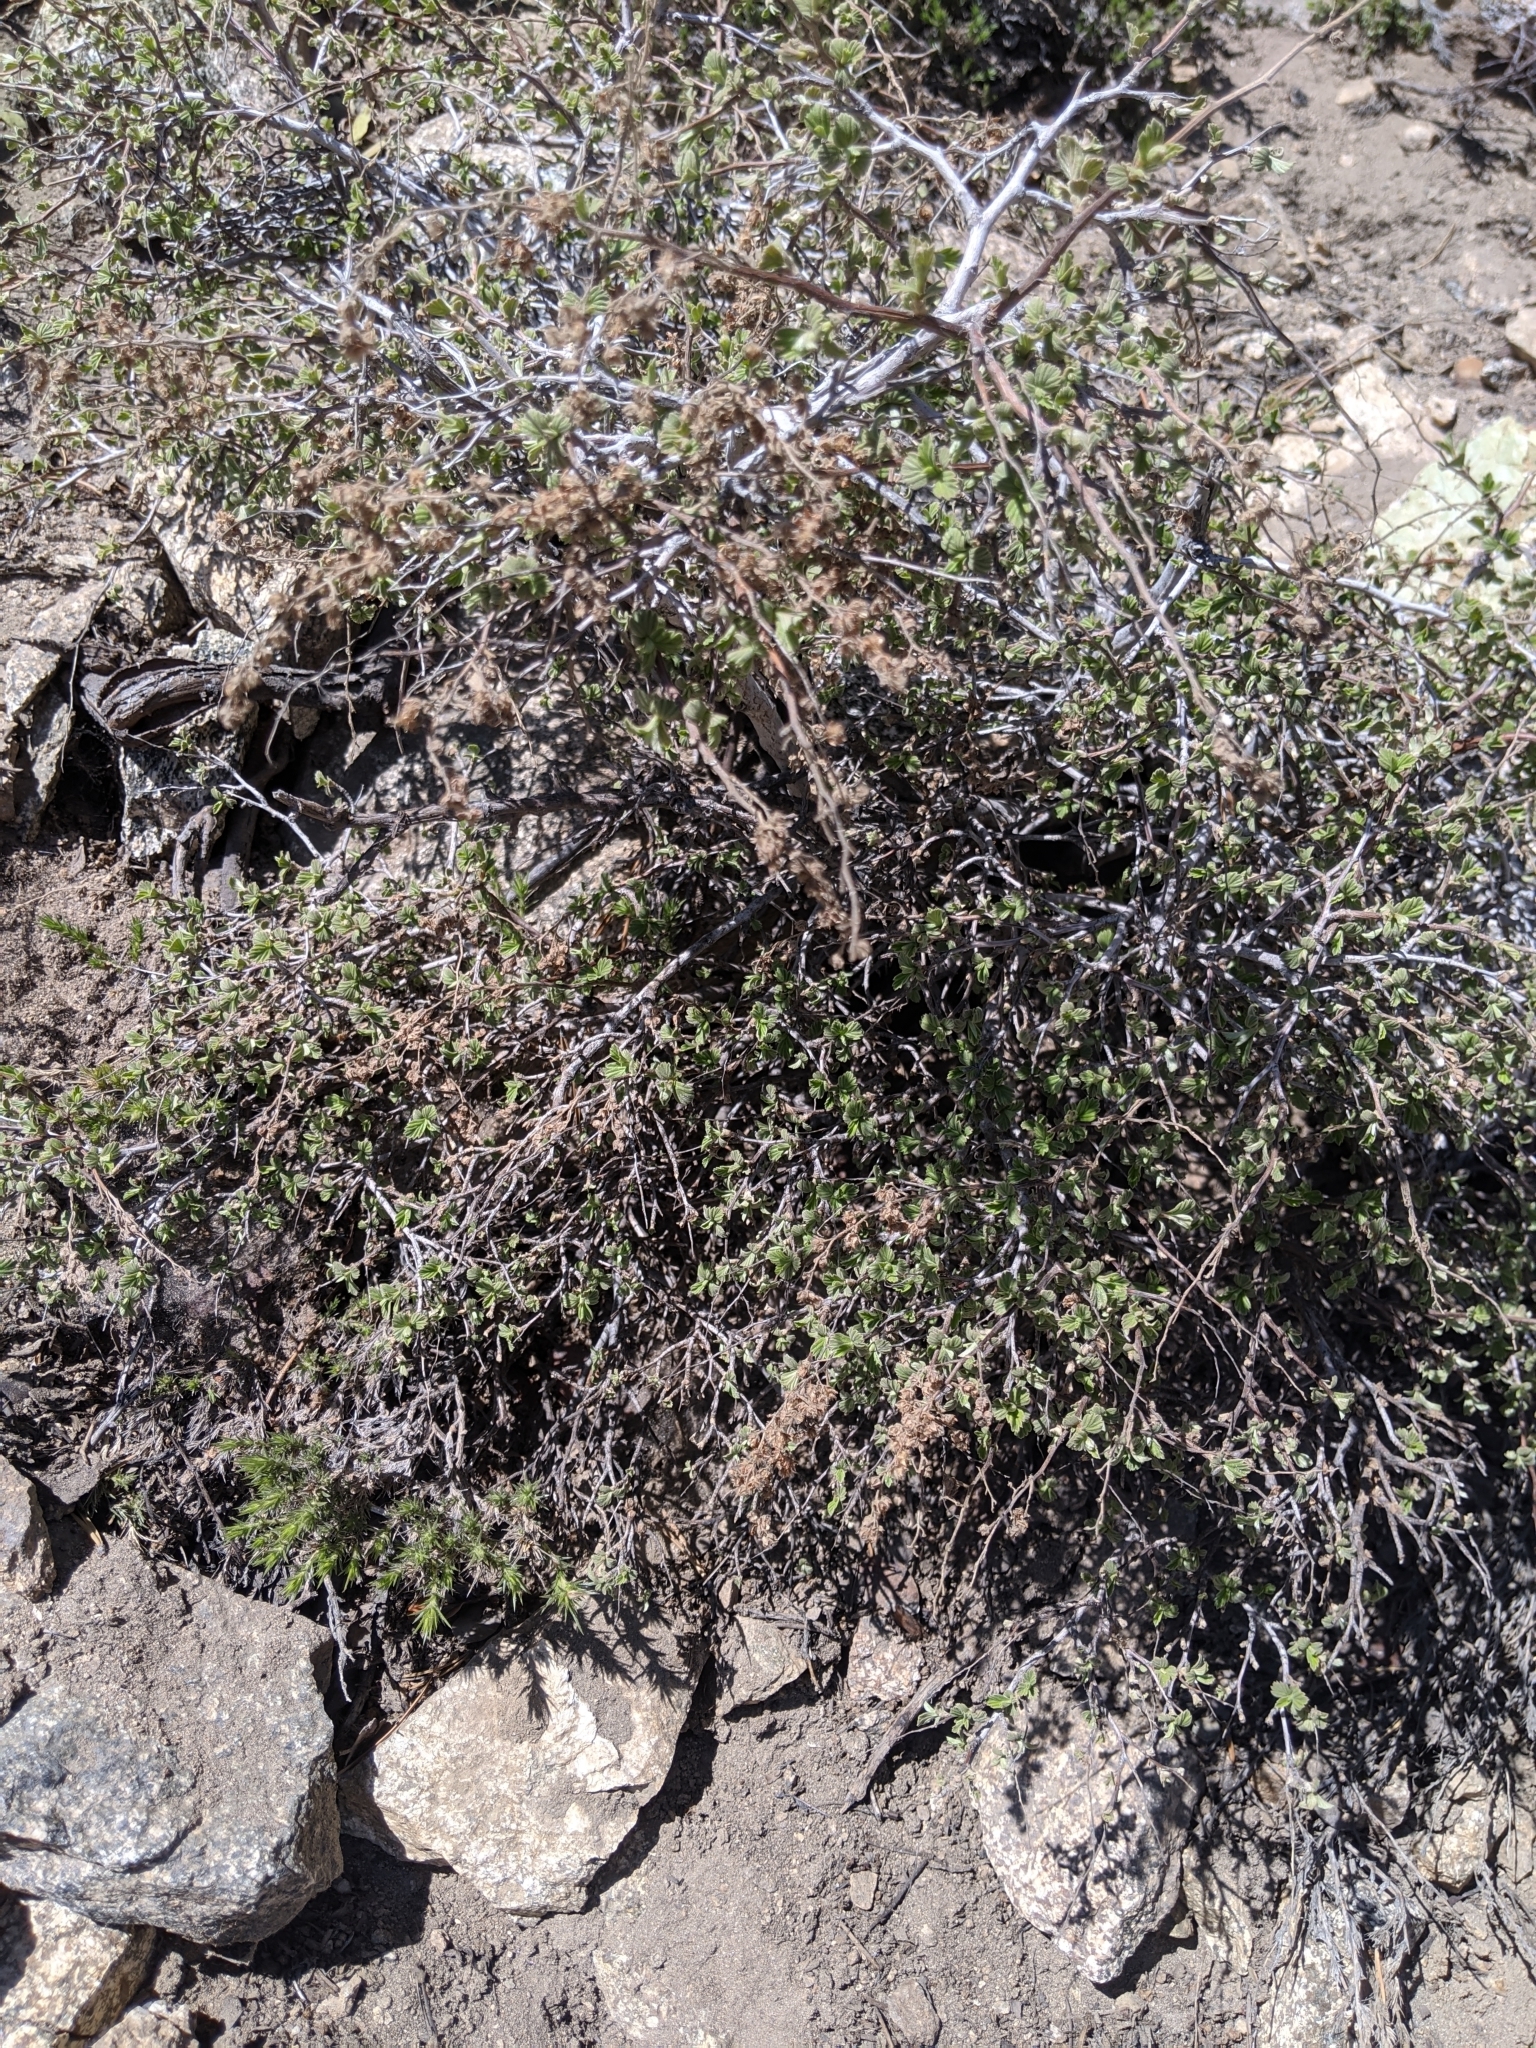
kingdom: Plantae
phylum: Tracheophyta
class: Magnoliopsida
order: Rosales
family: Rosaceae
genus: Holodiscus
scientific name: Holodiscus discolor
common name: Oceanspray
